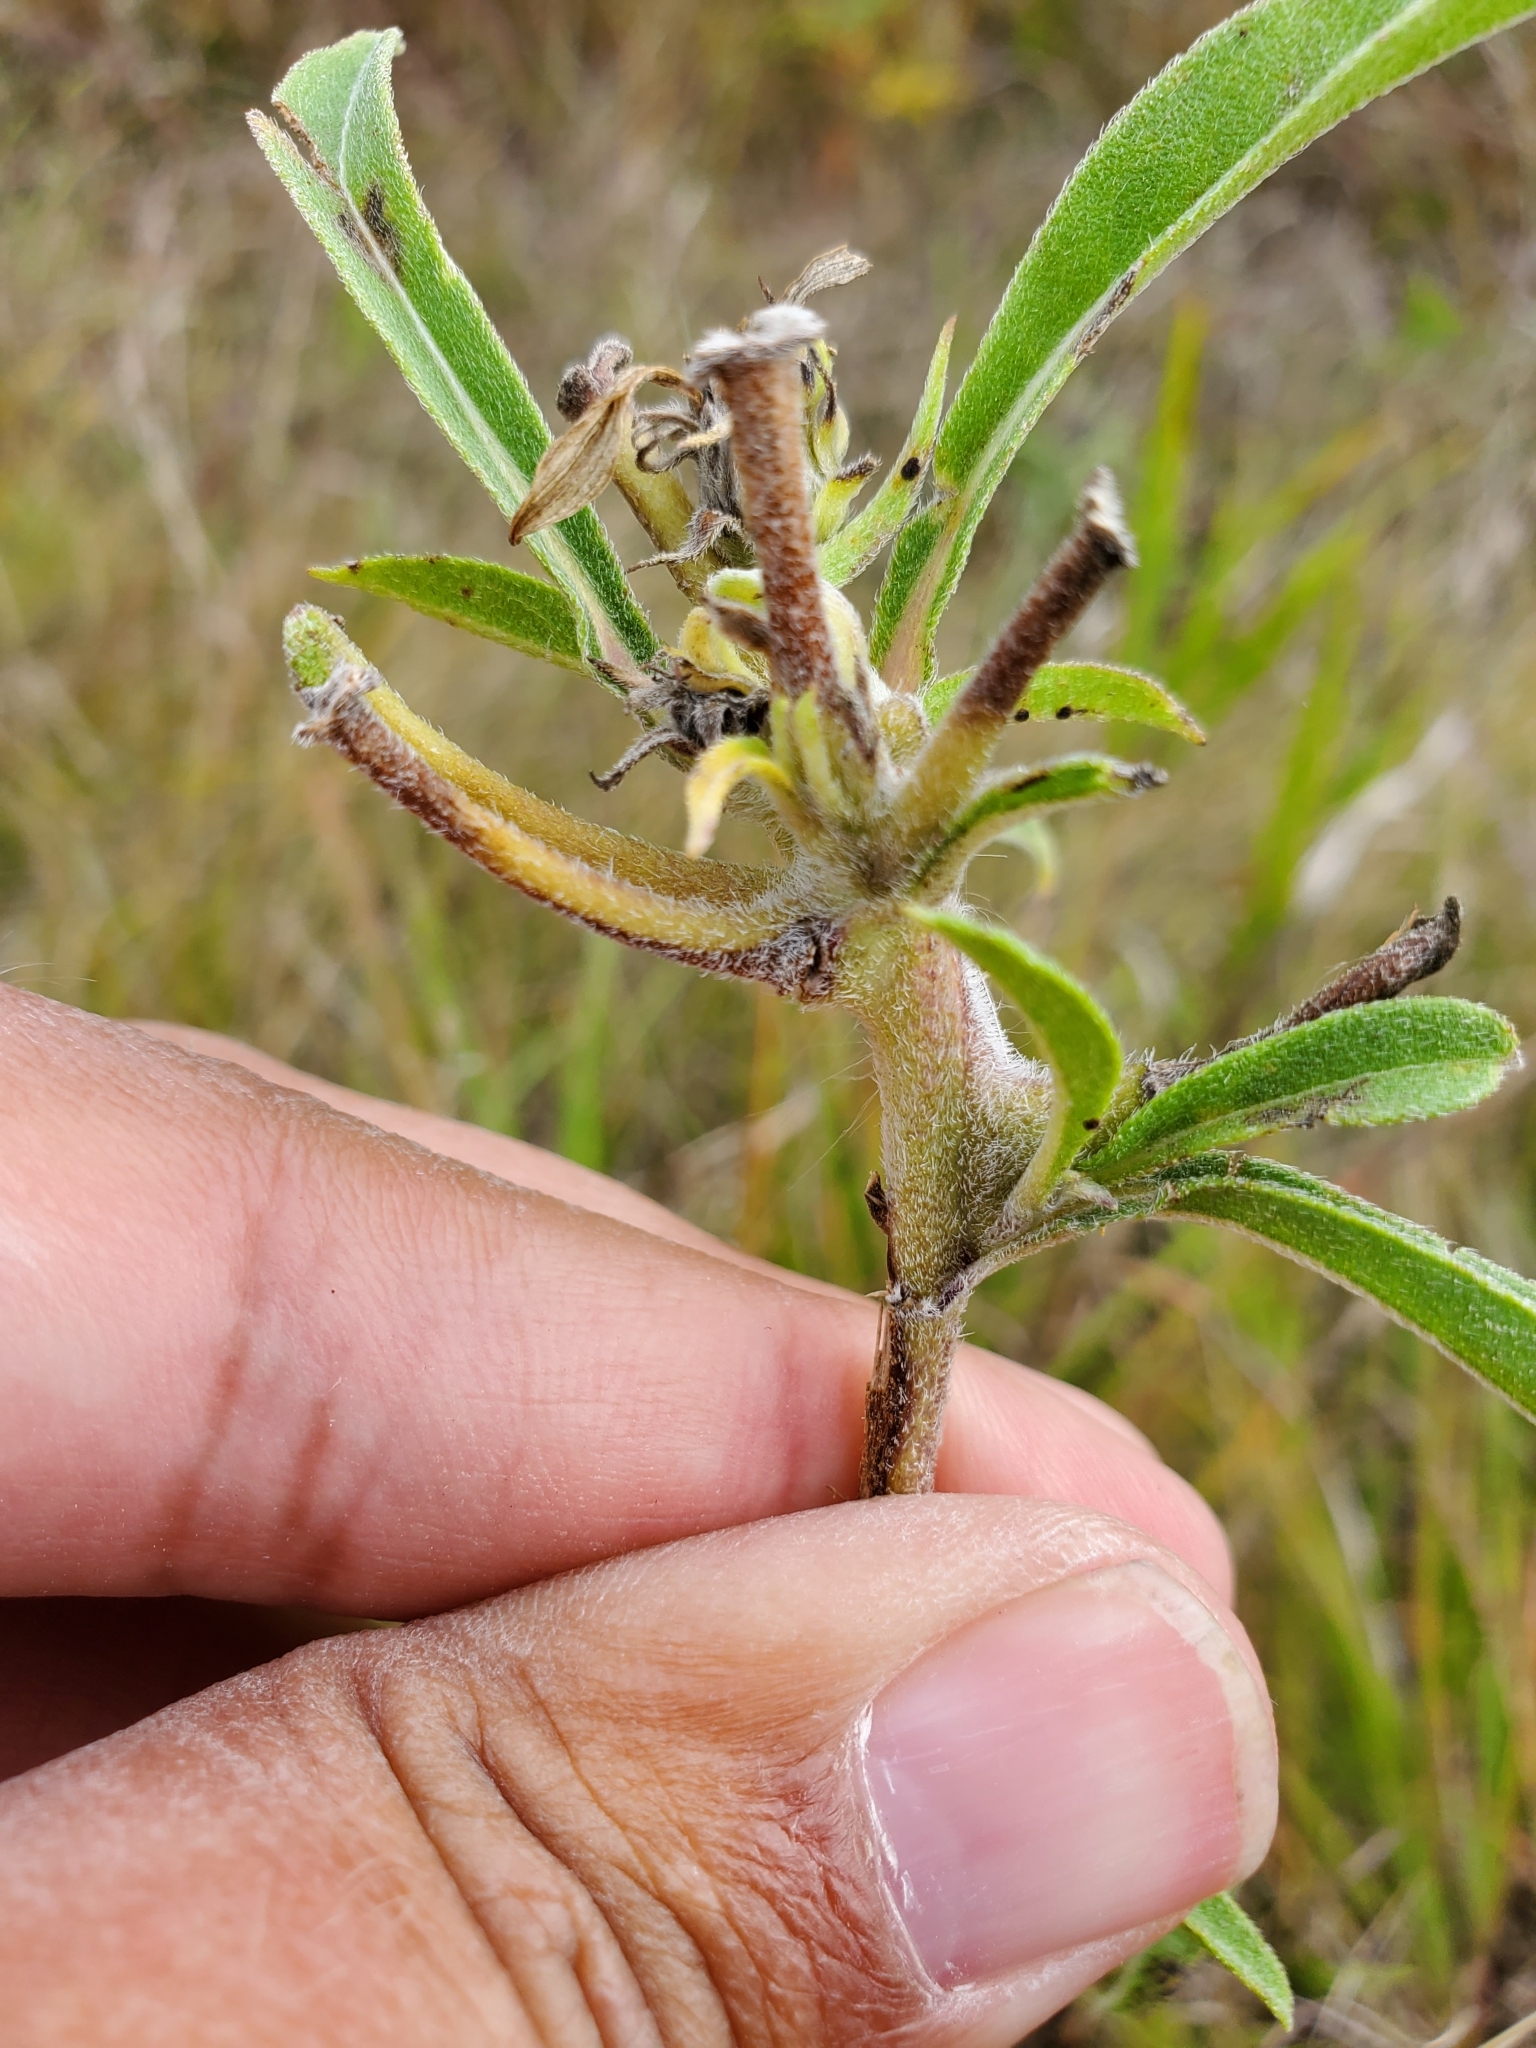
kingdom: Animalia
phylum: Arthropoda
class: Insecta
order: Diptera
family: Cecidomyiidae
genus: Olpodiplosis
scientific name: Olpodiplosis helianthi
